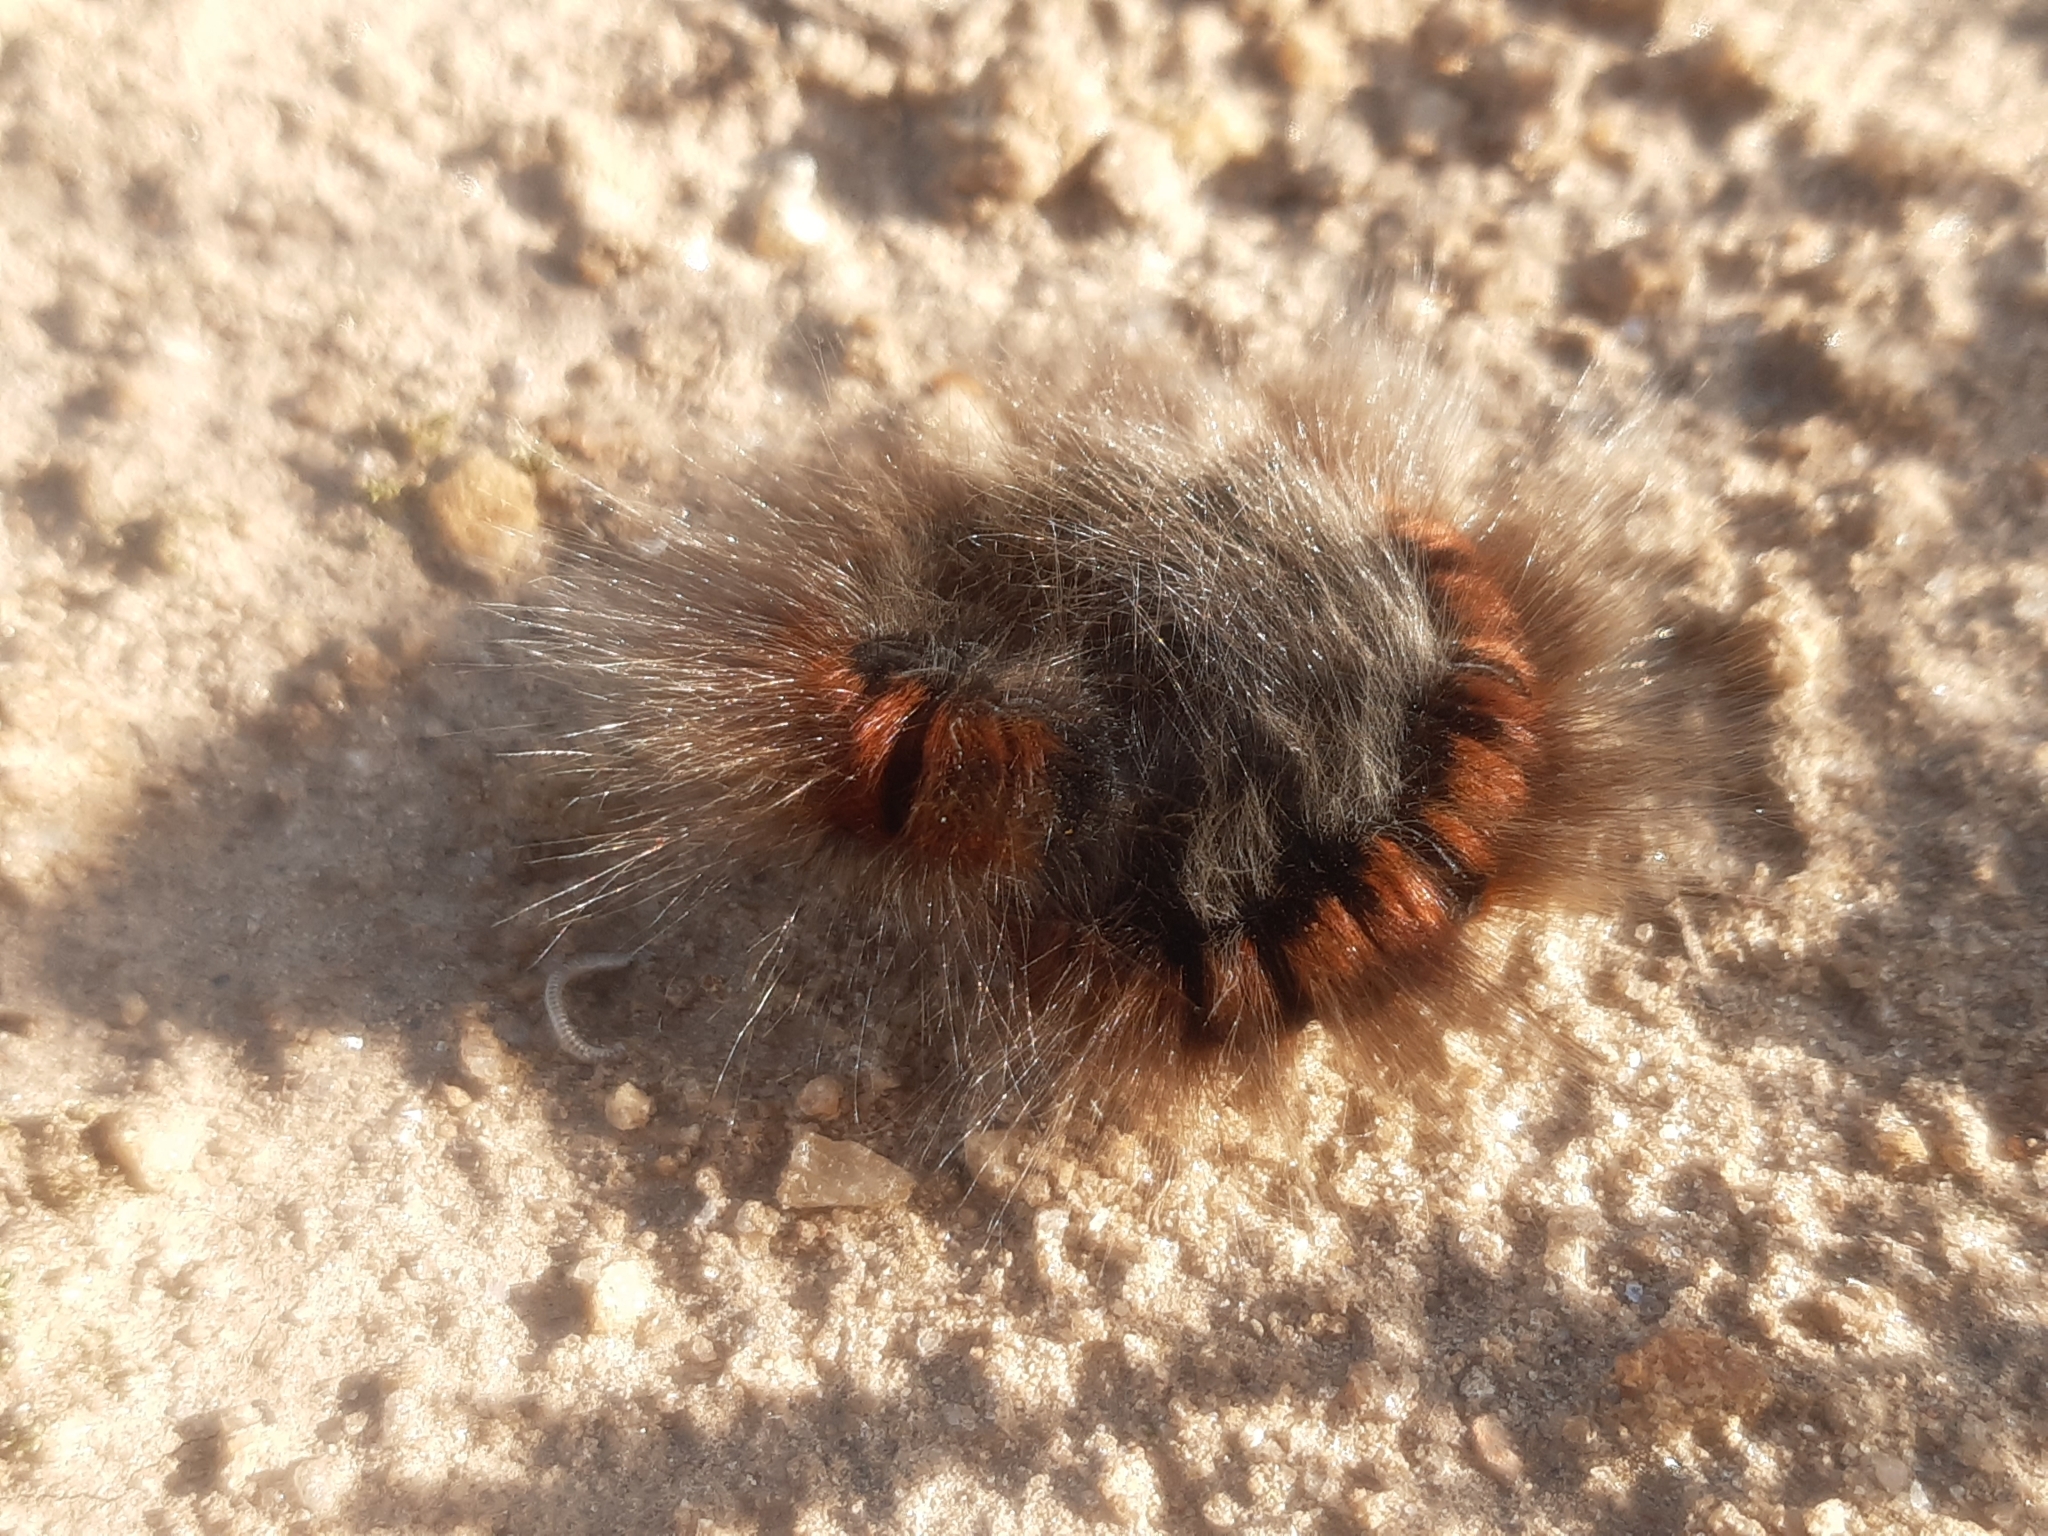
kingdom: Animalia
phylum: Arthropoda
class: Insecta
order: Lepidoptera
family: Lasiocampidae
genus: Macrothylacia
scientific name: Macrothylacia rubi
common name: Fox moth
